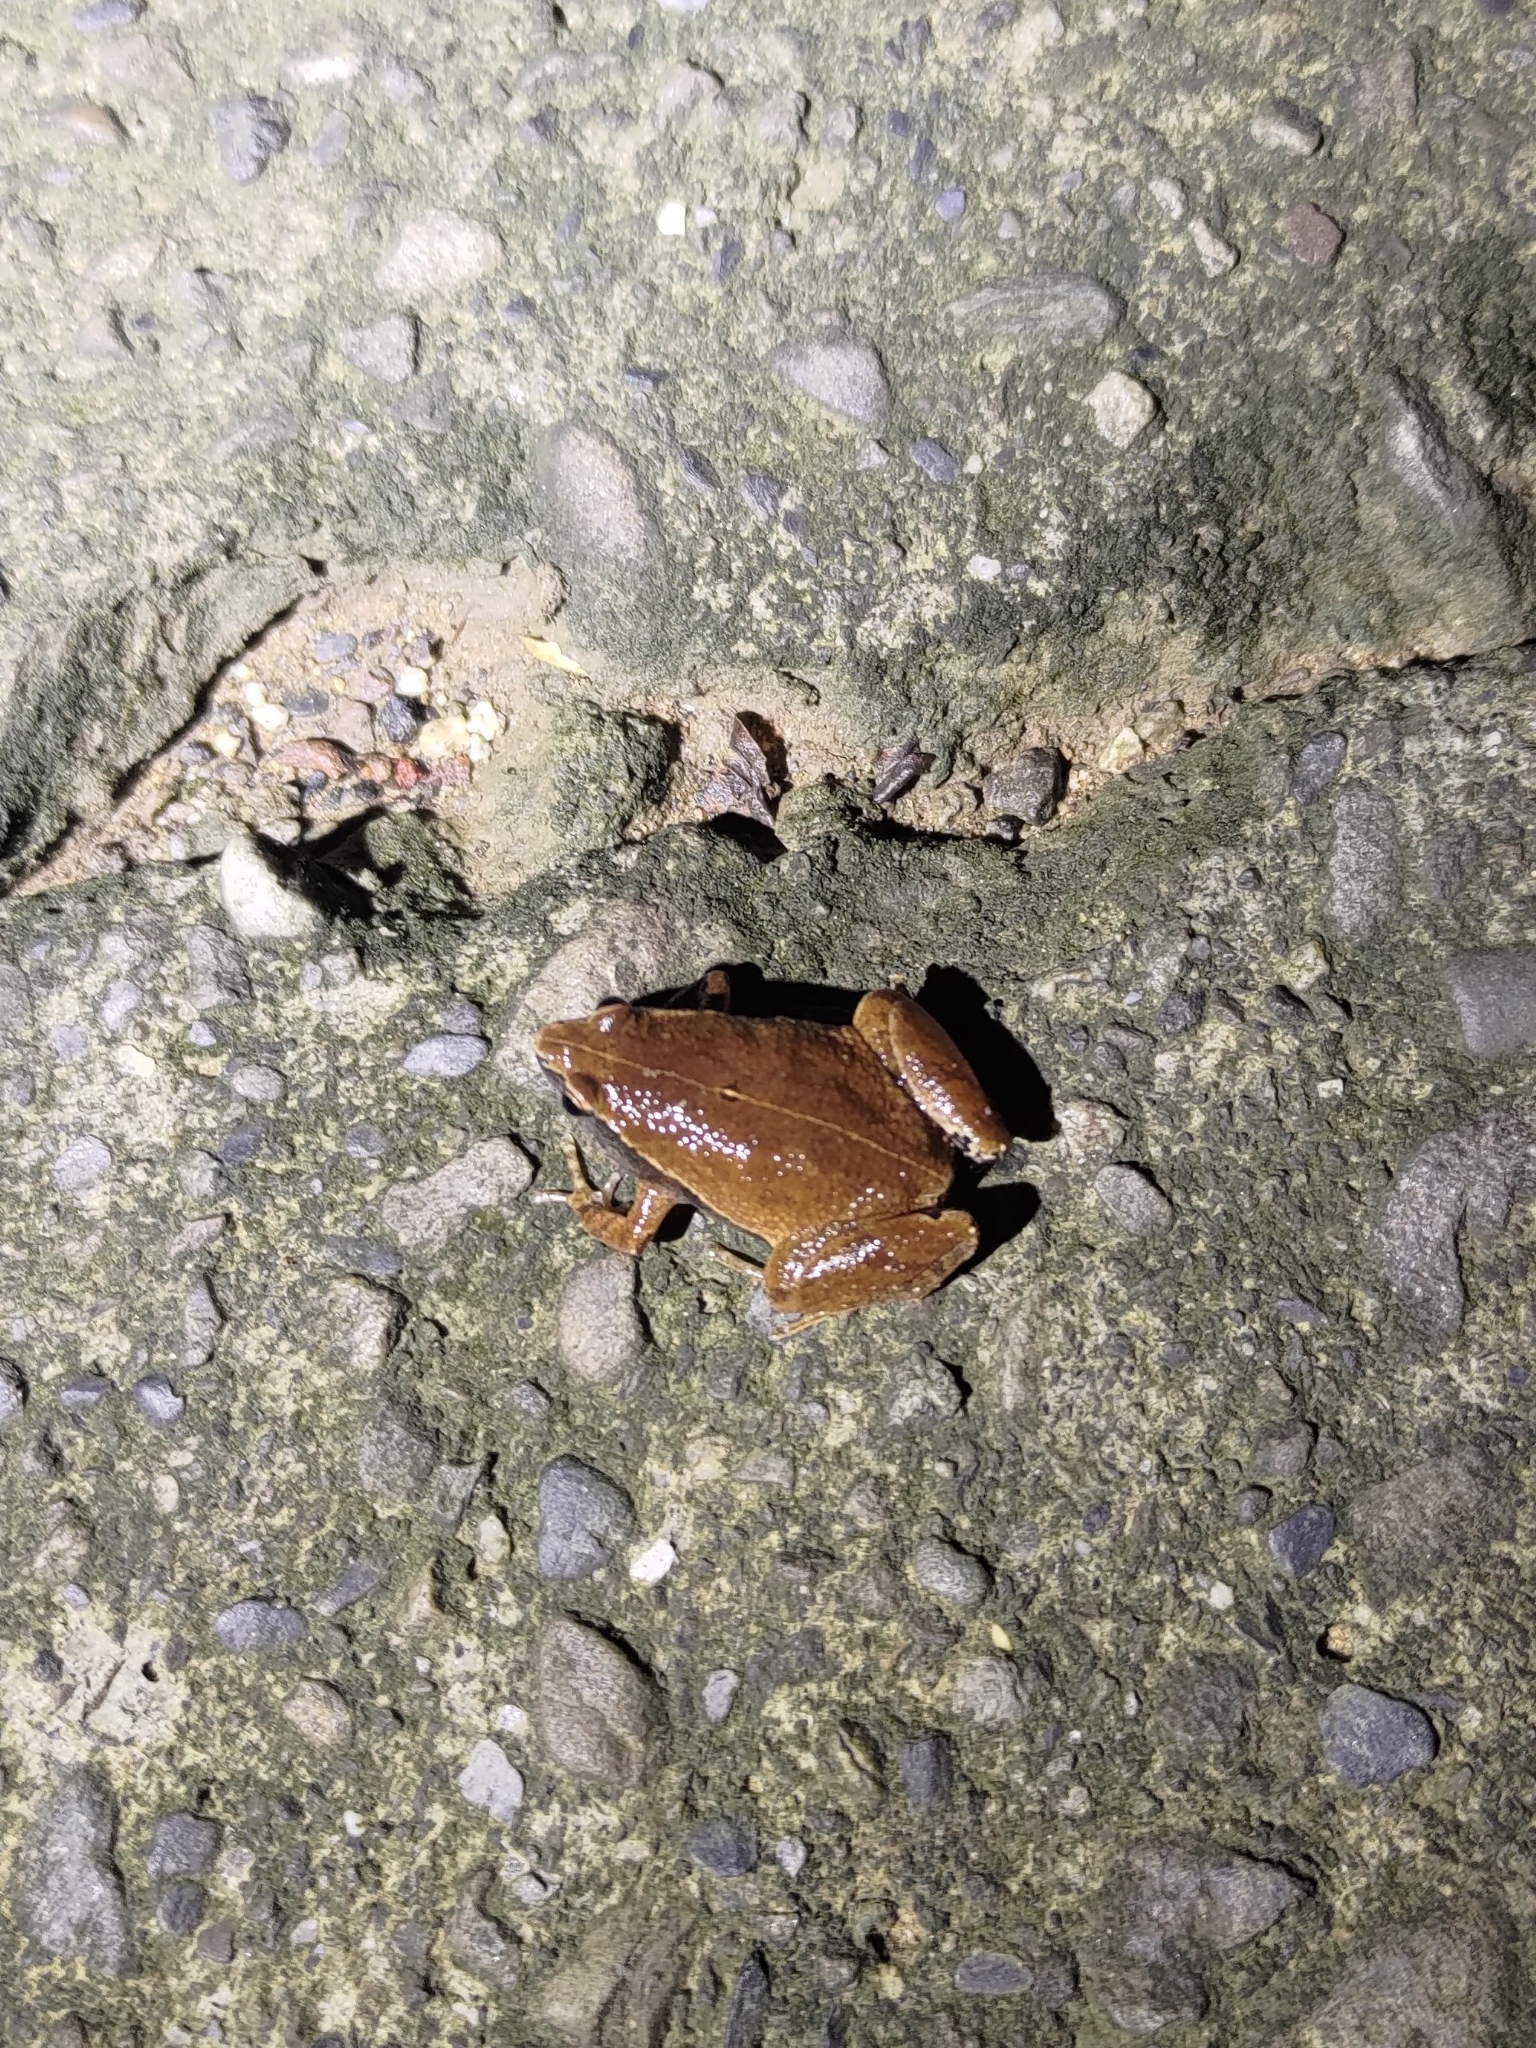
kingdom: Animalia
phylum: Chordata
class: Amphibia
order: Anura
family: Microhylidae
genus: Microhyla
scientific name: Microhyla heymonsi
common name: Taiwan rice frog,dark sided chorus frog
